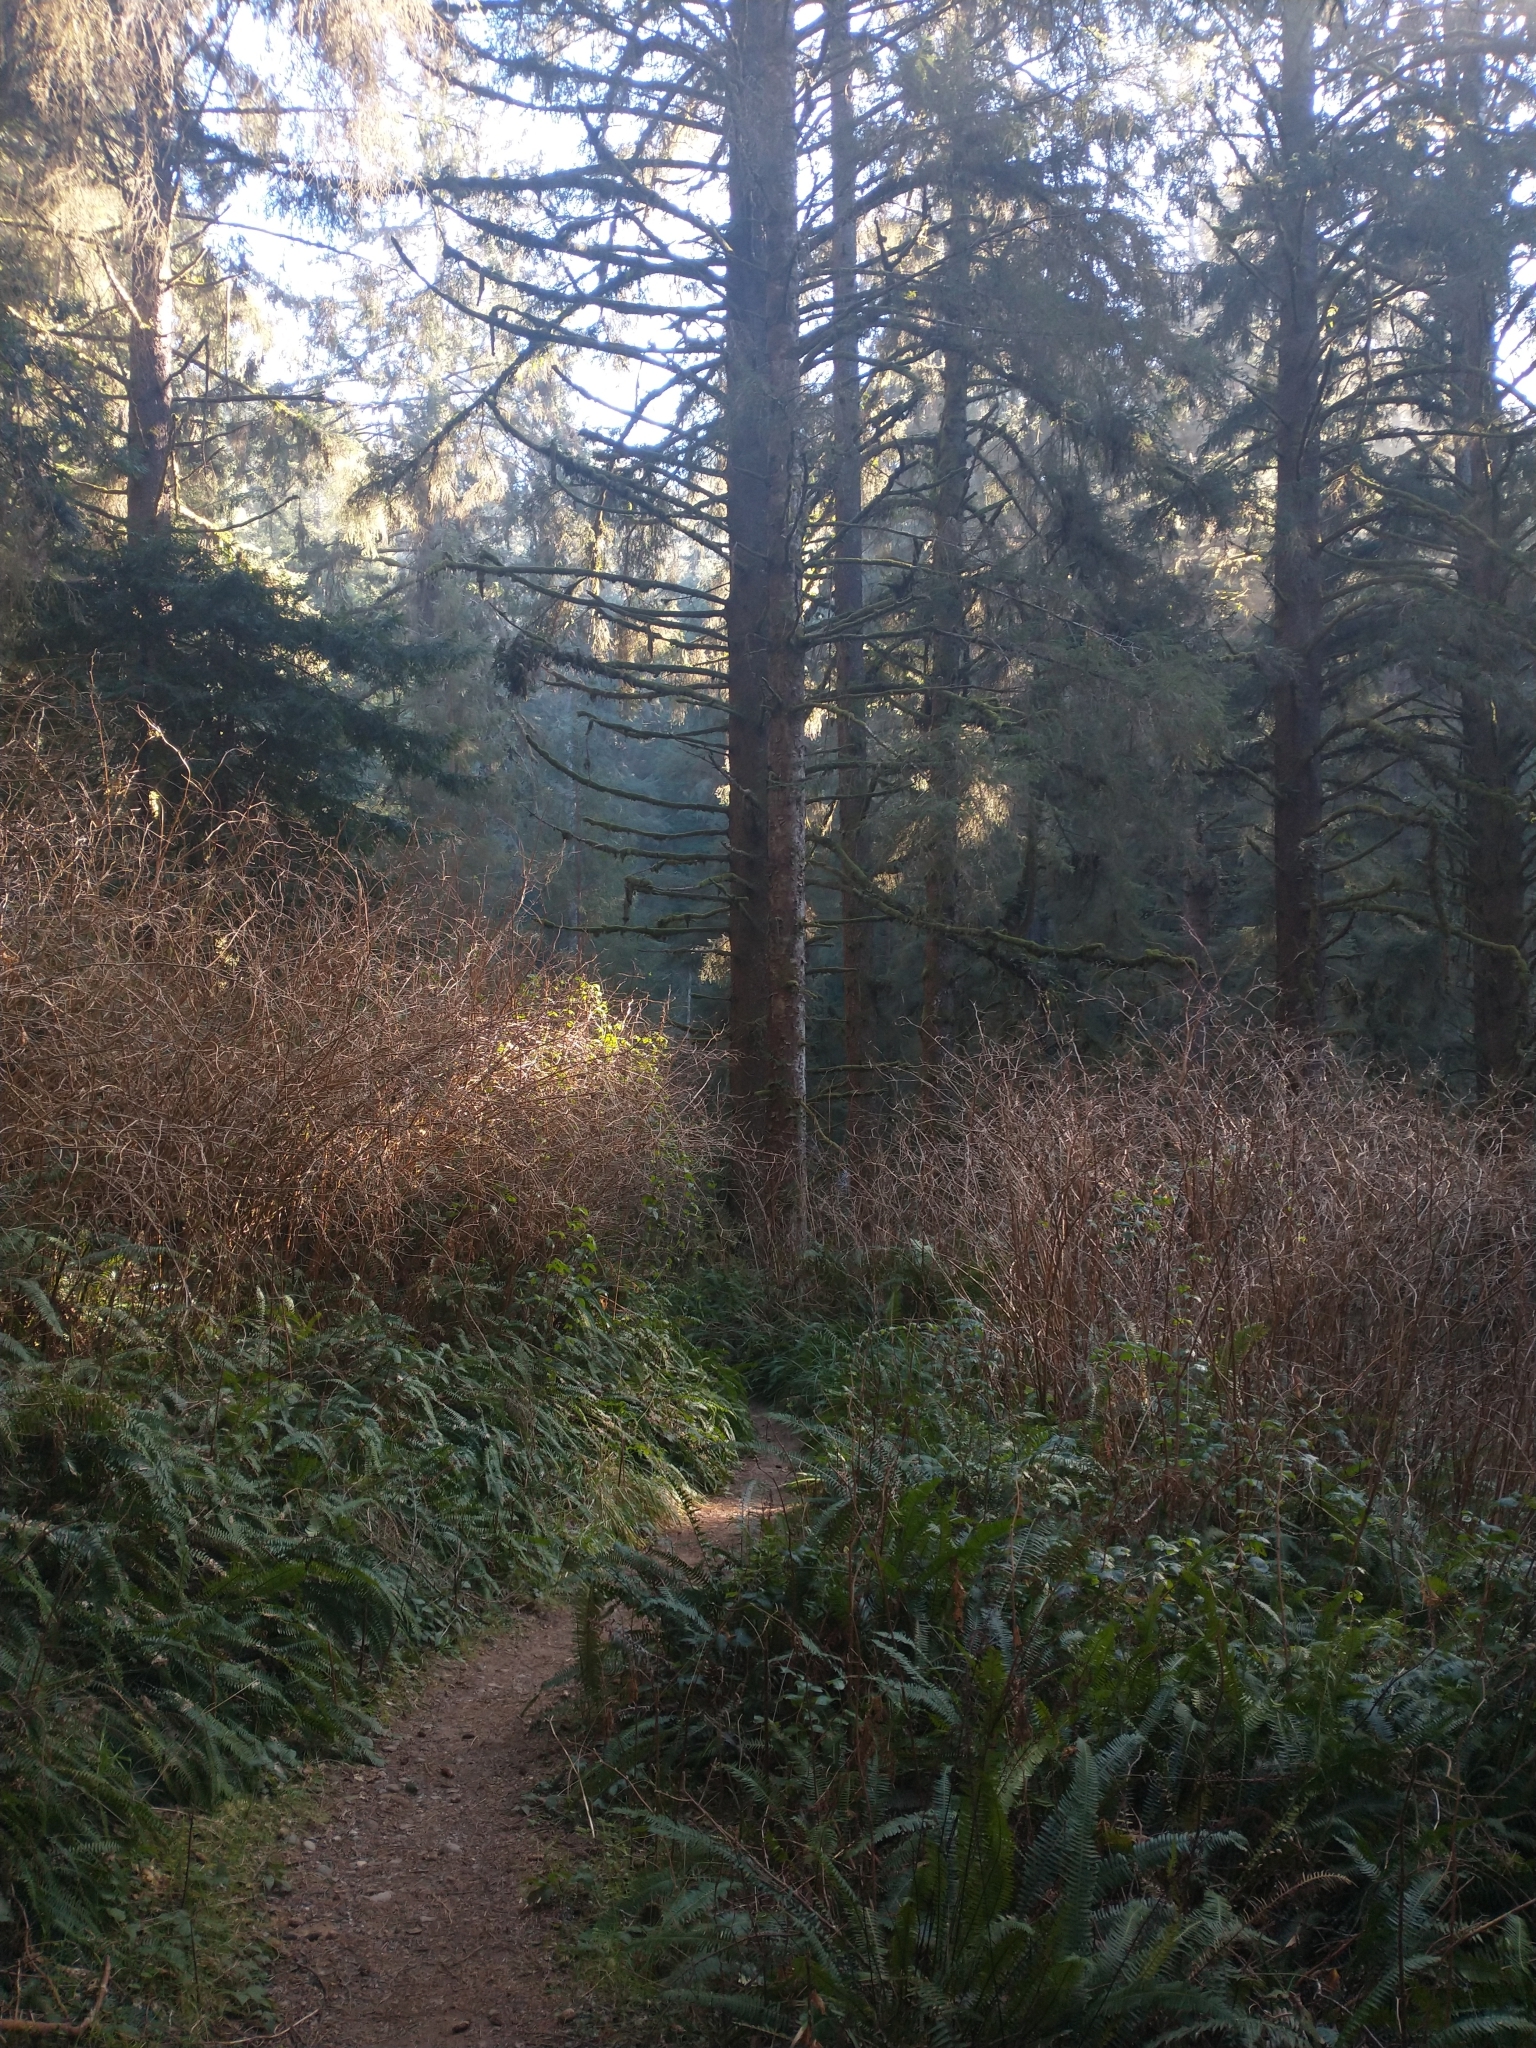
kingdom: Plantae
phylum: Tracheophyta
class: Magnoliopsida
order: Rosales
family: Rosaceae
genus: Rubus
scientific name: Rubus spectabilis
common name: Salmonberry
